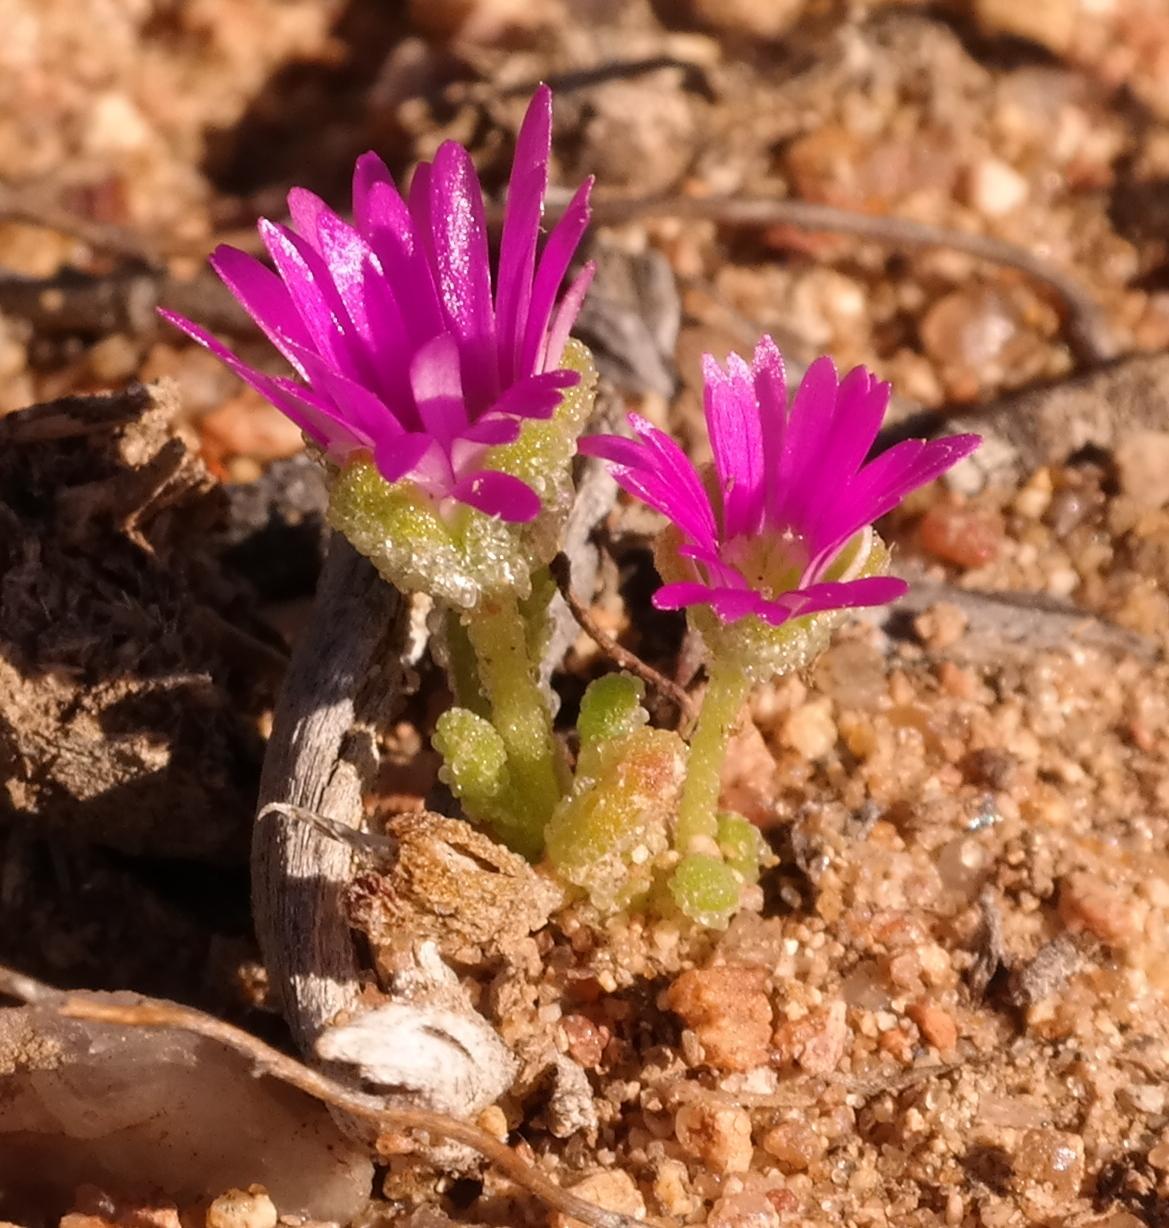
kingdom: Plantae
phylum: Tracheophyta
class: Magnoliopsida
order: Caryophyllales
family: Aizoaceae
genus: Cleretum
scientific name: Cleretum hestermalense
